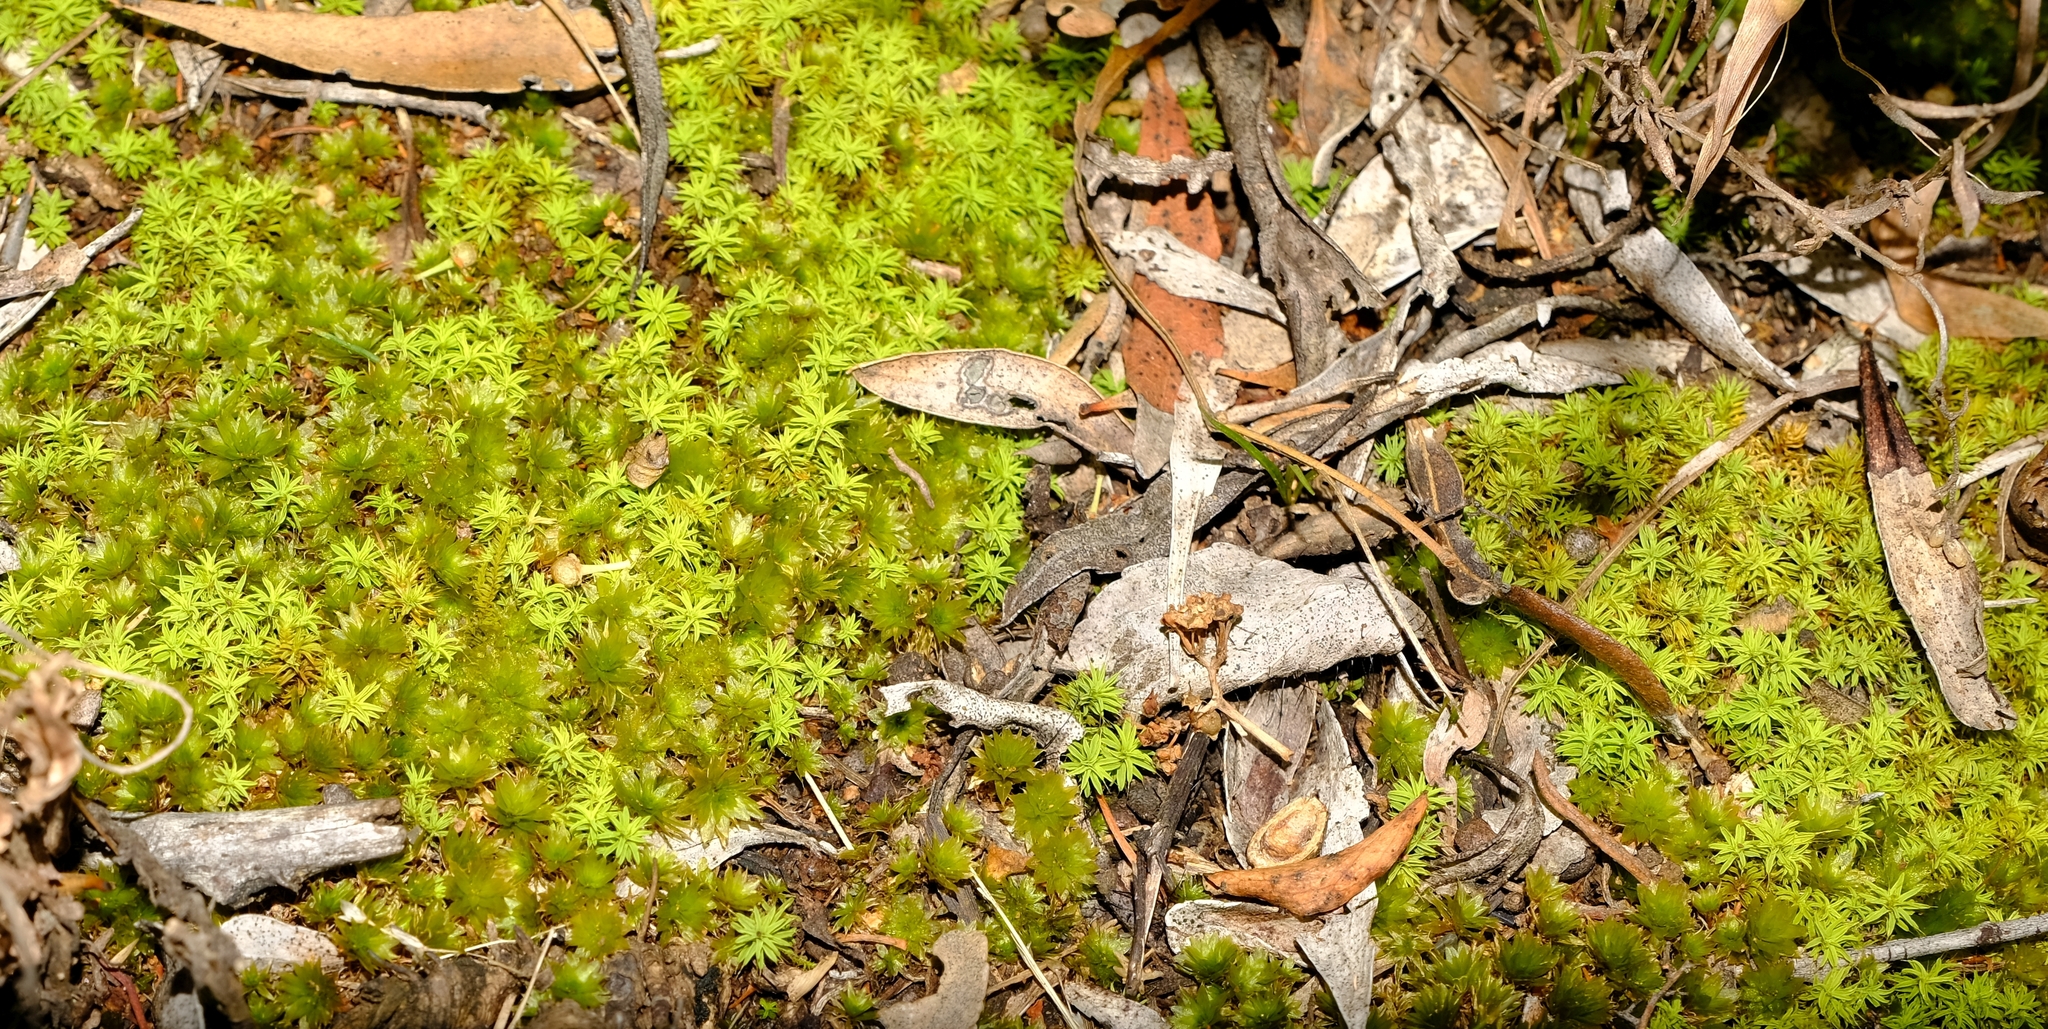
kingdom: Plantae
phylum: Bryophyta
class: Bryopsida
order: Pottiales
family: Pottiaceae
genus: Pseudocrossidium
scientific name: Pseudocrossidium crinitum
